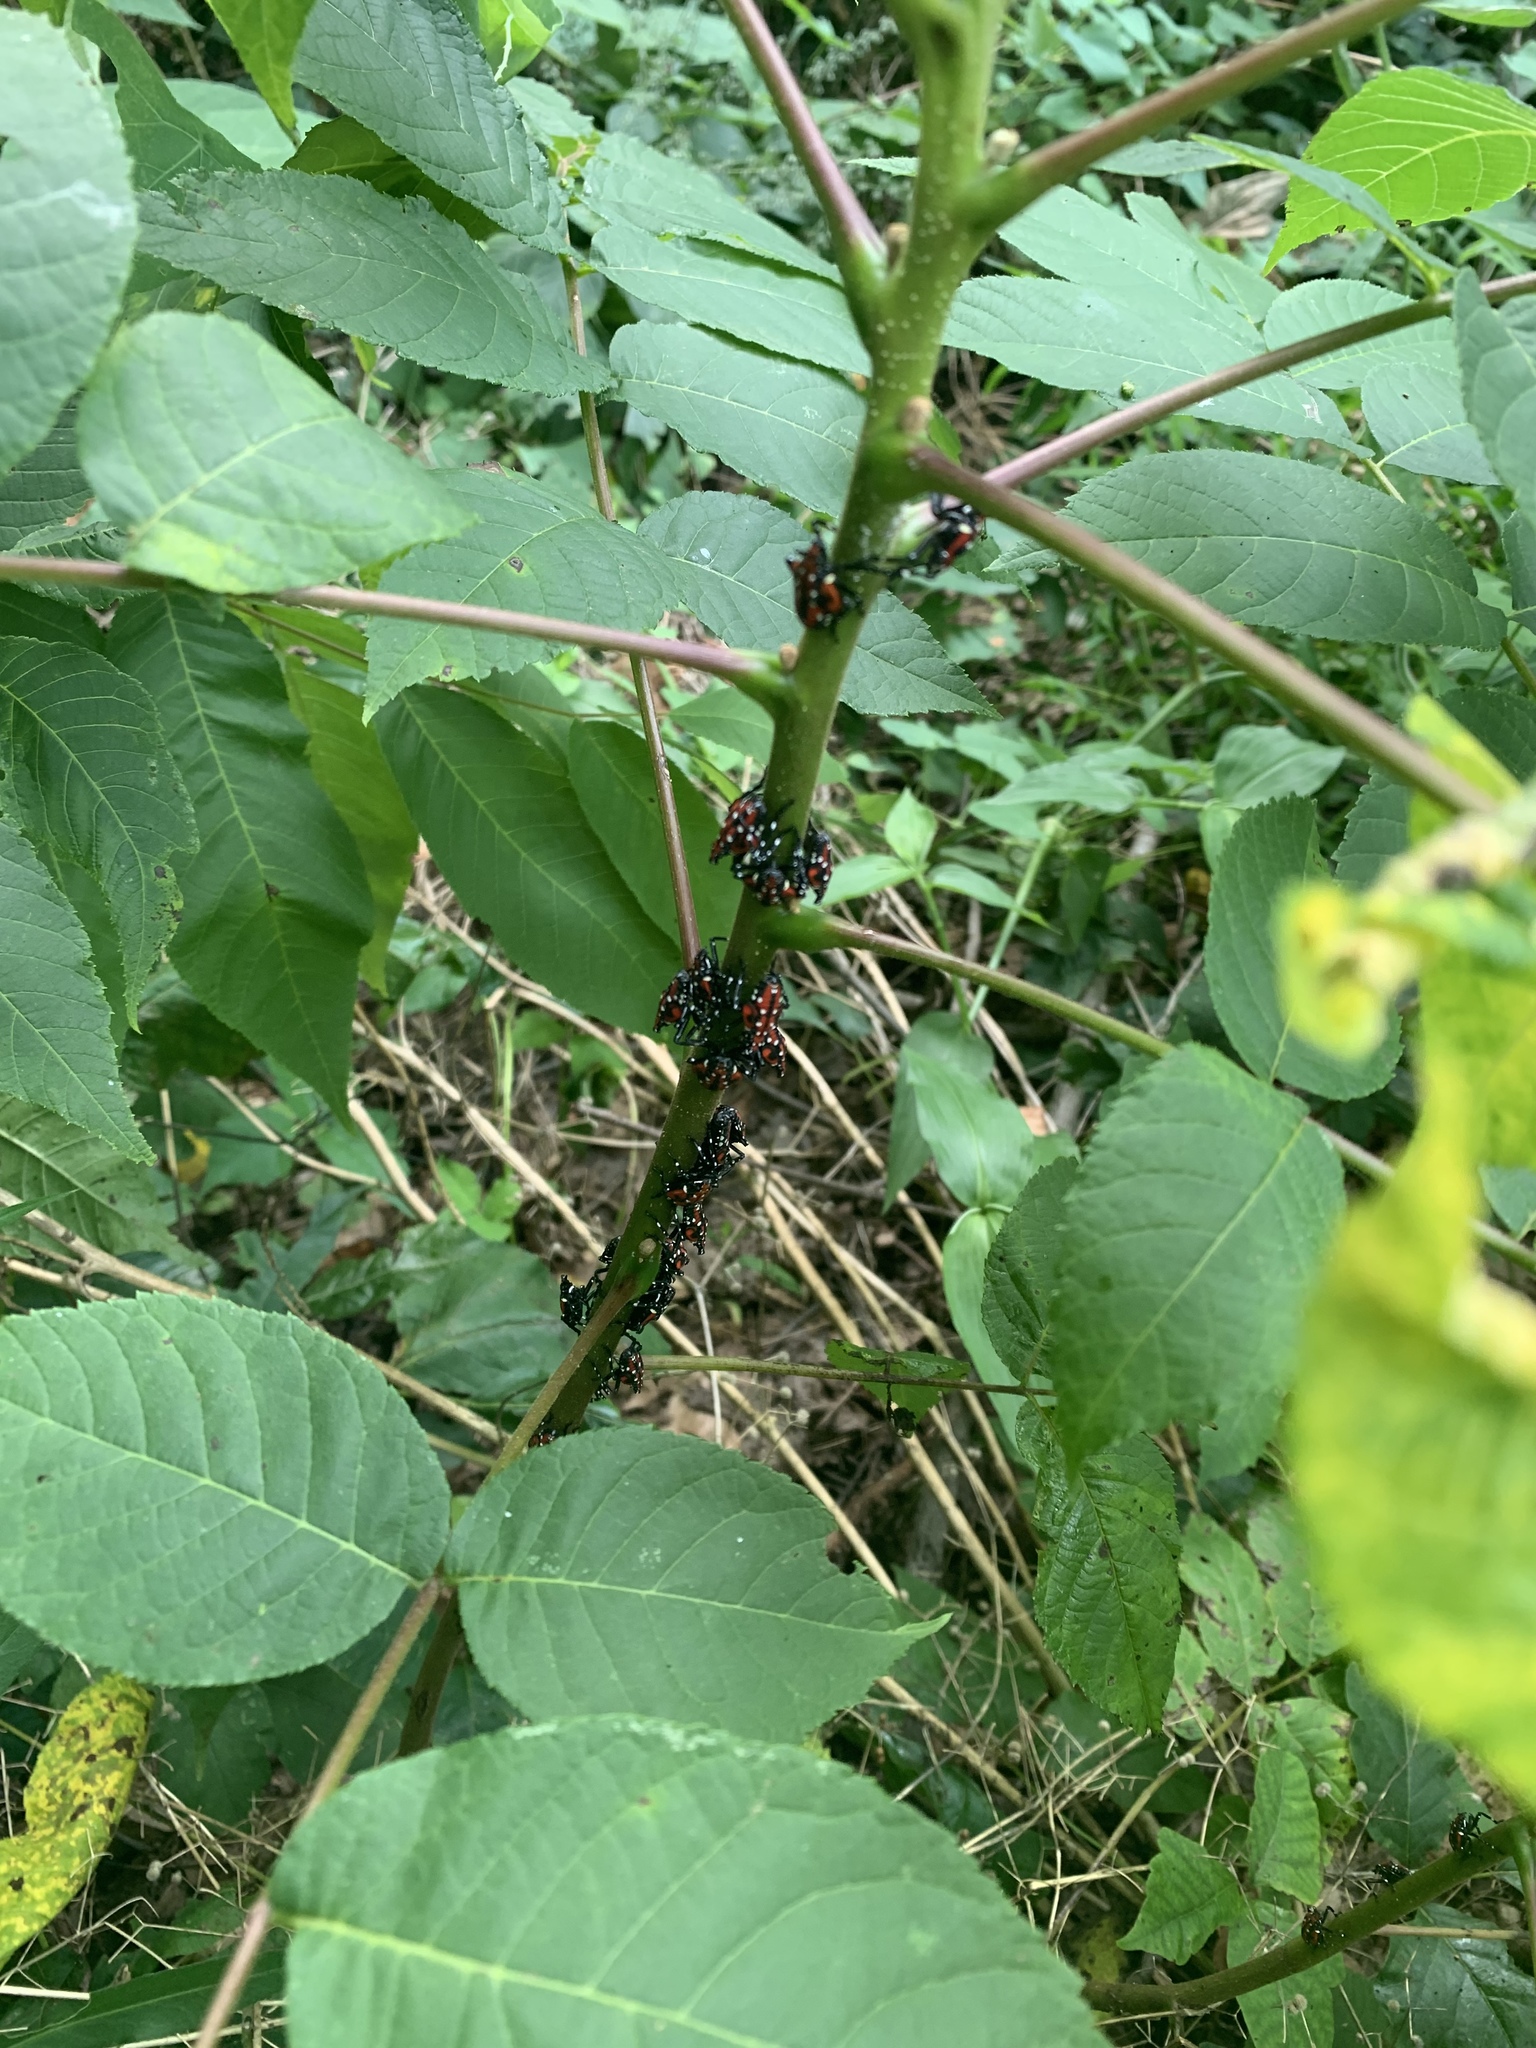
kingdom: Animalia
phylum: Arthropoda
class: Insecta
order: Hemiptera
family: Fulgoridae
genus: Lycorma
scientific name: Lycorma delicatula
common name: Spotted lanternfly
